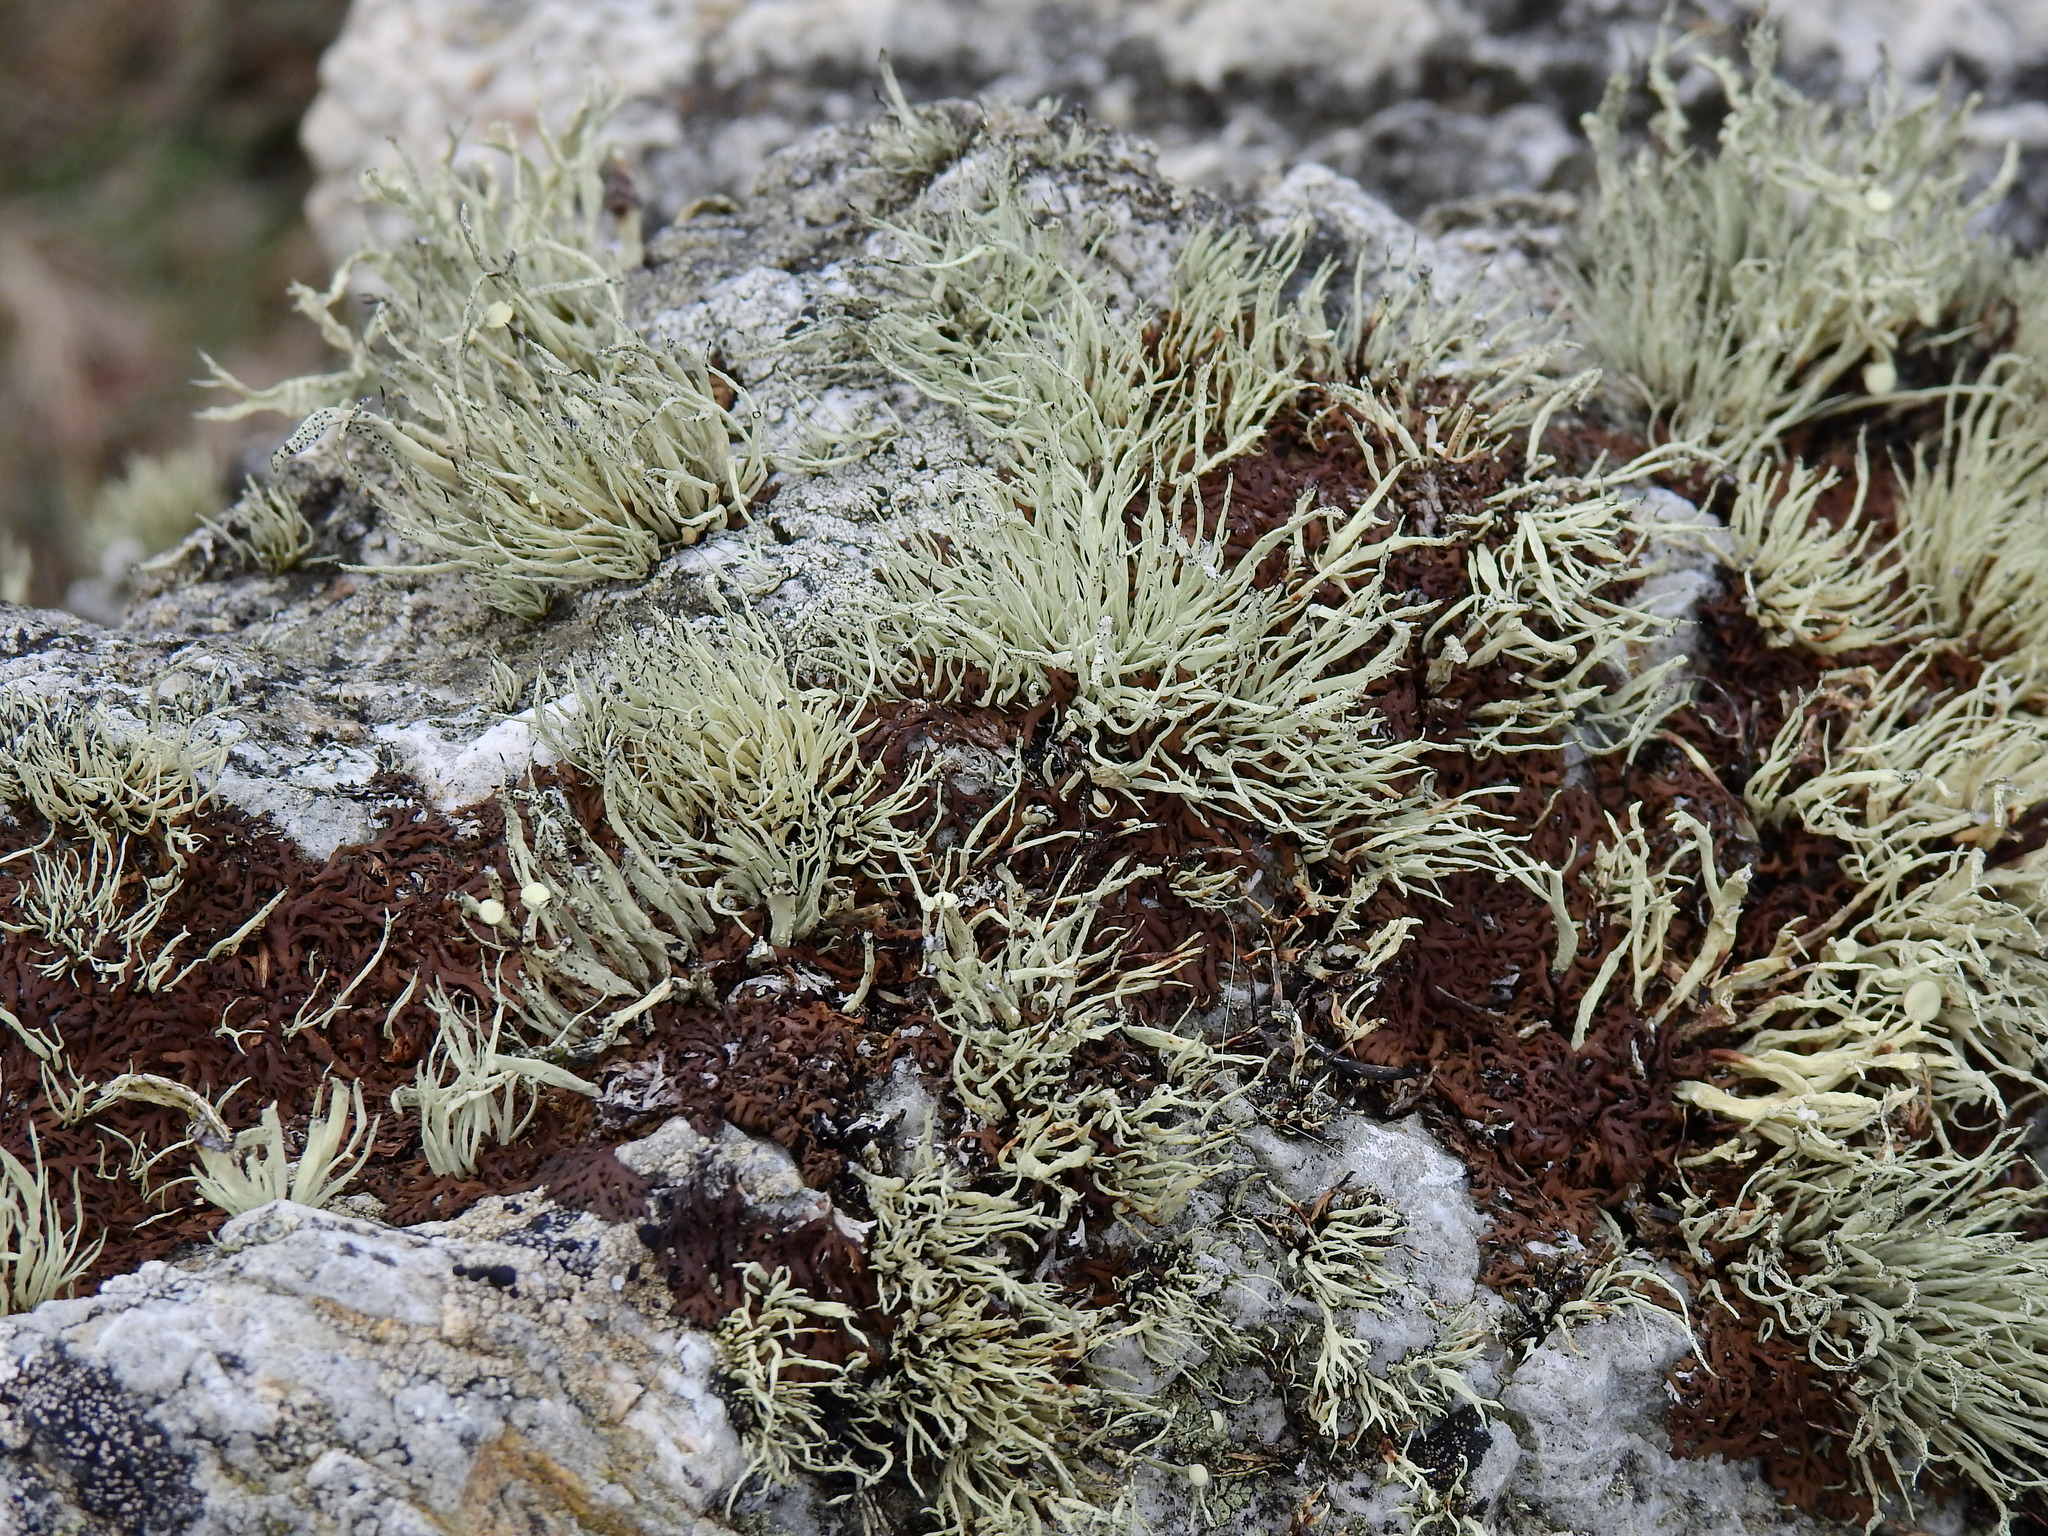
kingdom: Fungi
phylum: Ascomycota
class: Lecanoromycetes
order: Lecanorales
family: Ramalinaceae
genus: Ramalina
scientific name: Ramalina cuspidata
